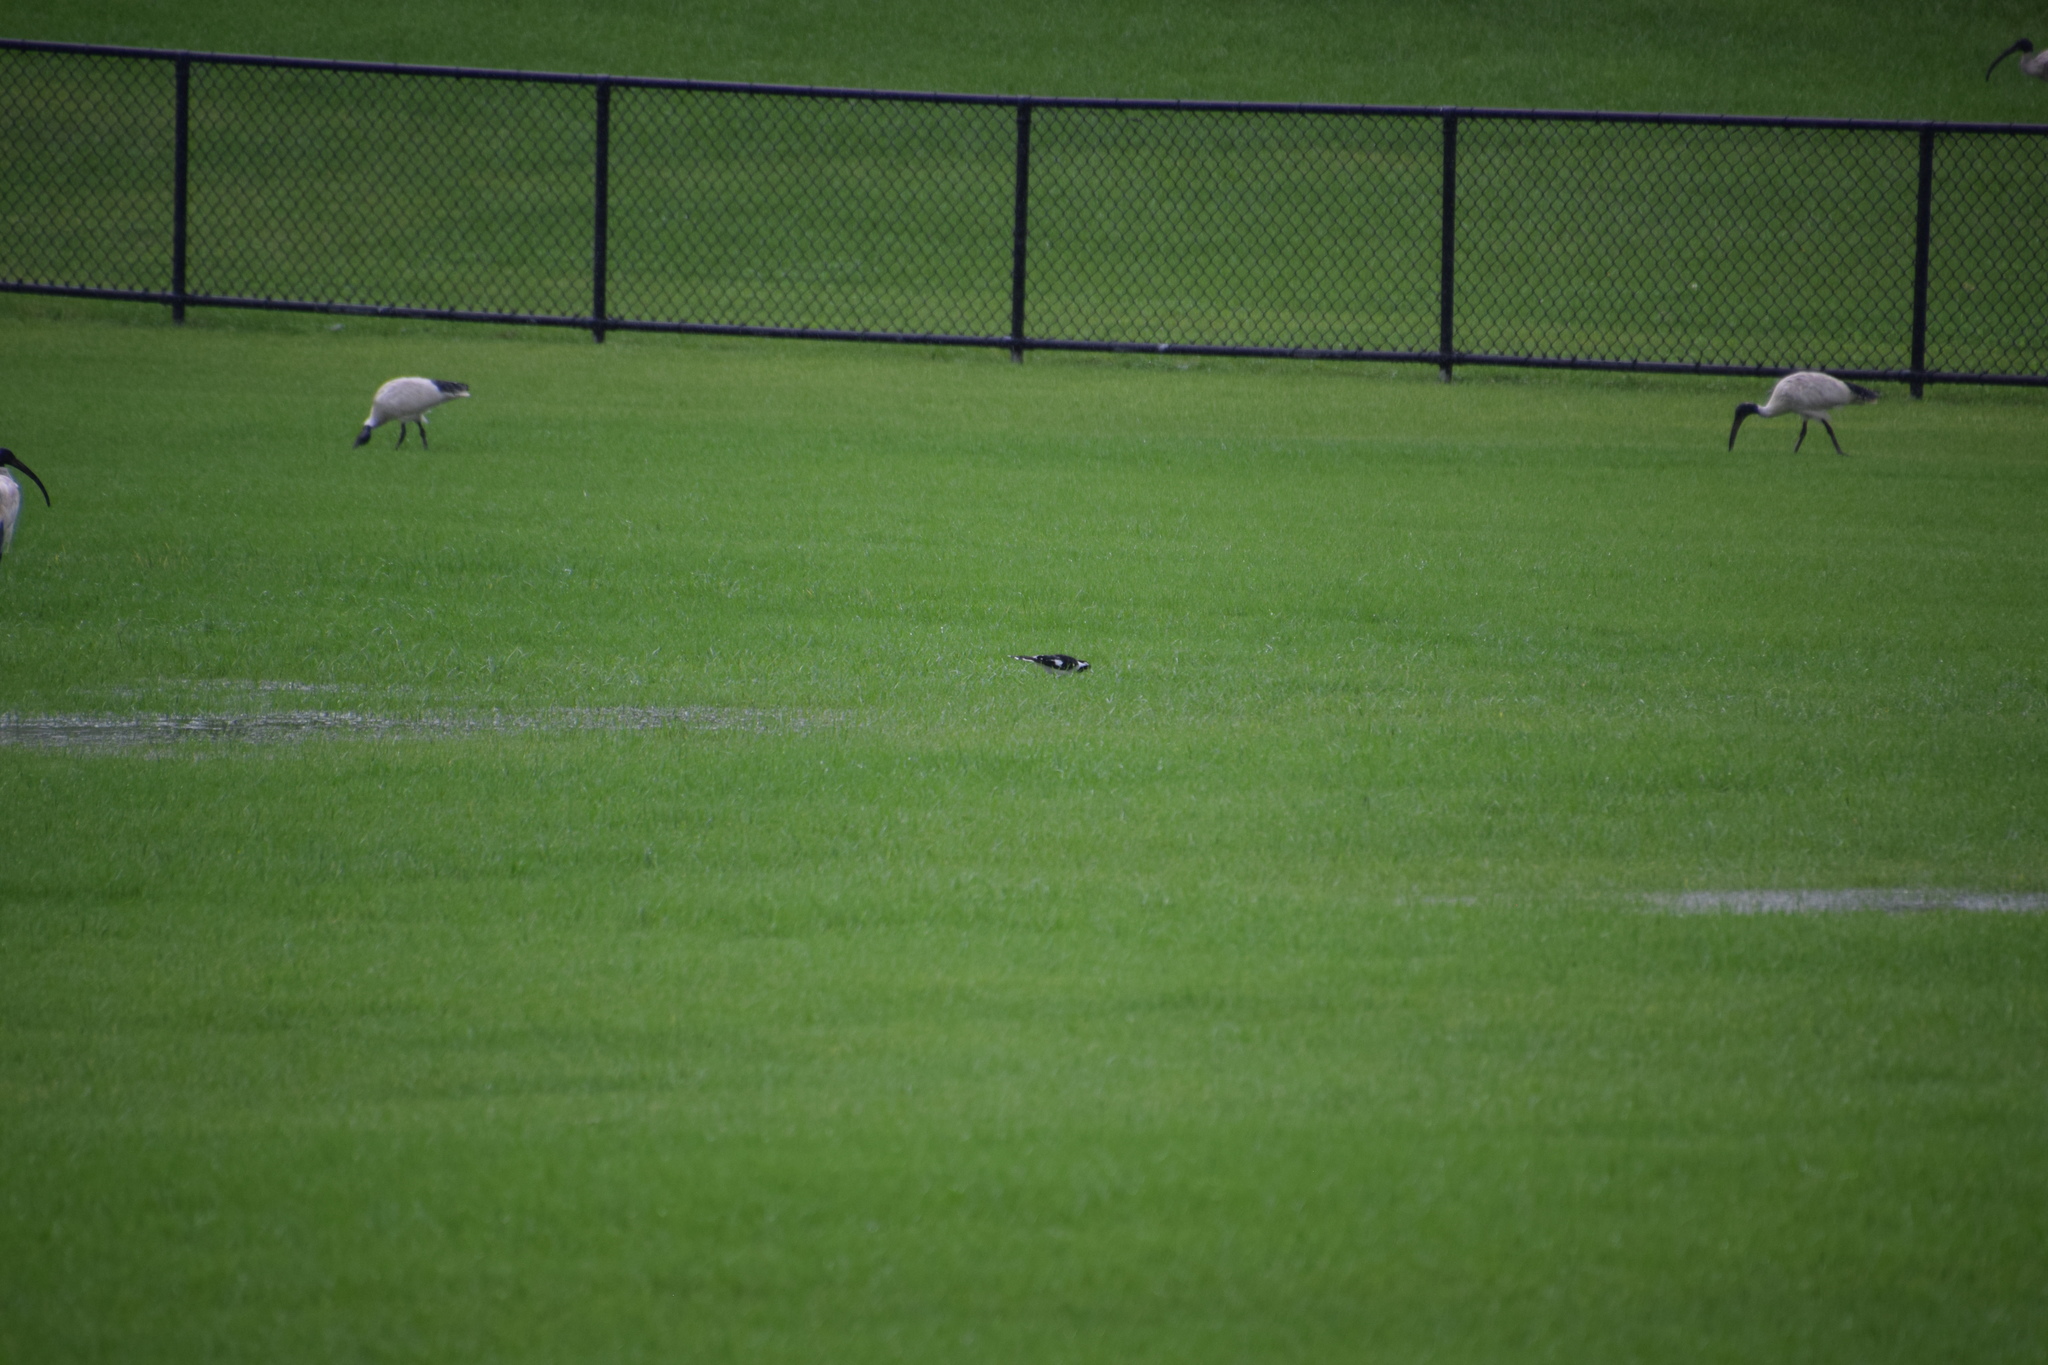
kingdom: Animalia
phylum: Chordata
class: Aves
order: Passeriformes
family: Monarchidae
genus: Grallina
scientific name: Grallina cyanoleuca
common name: Magpie-lark
